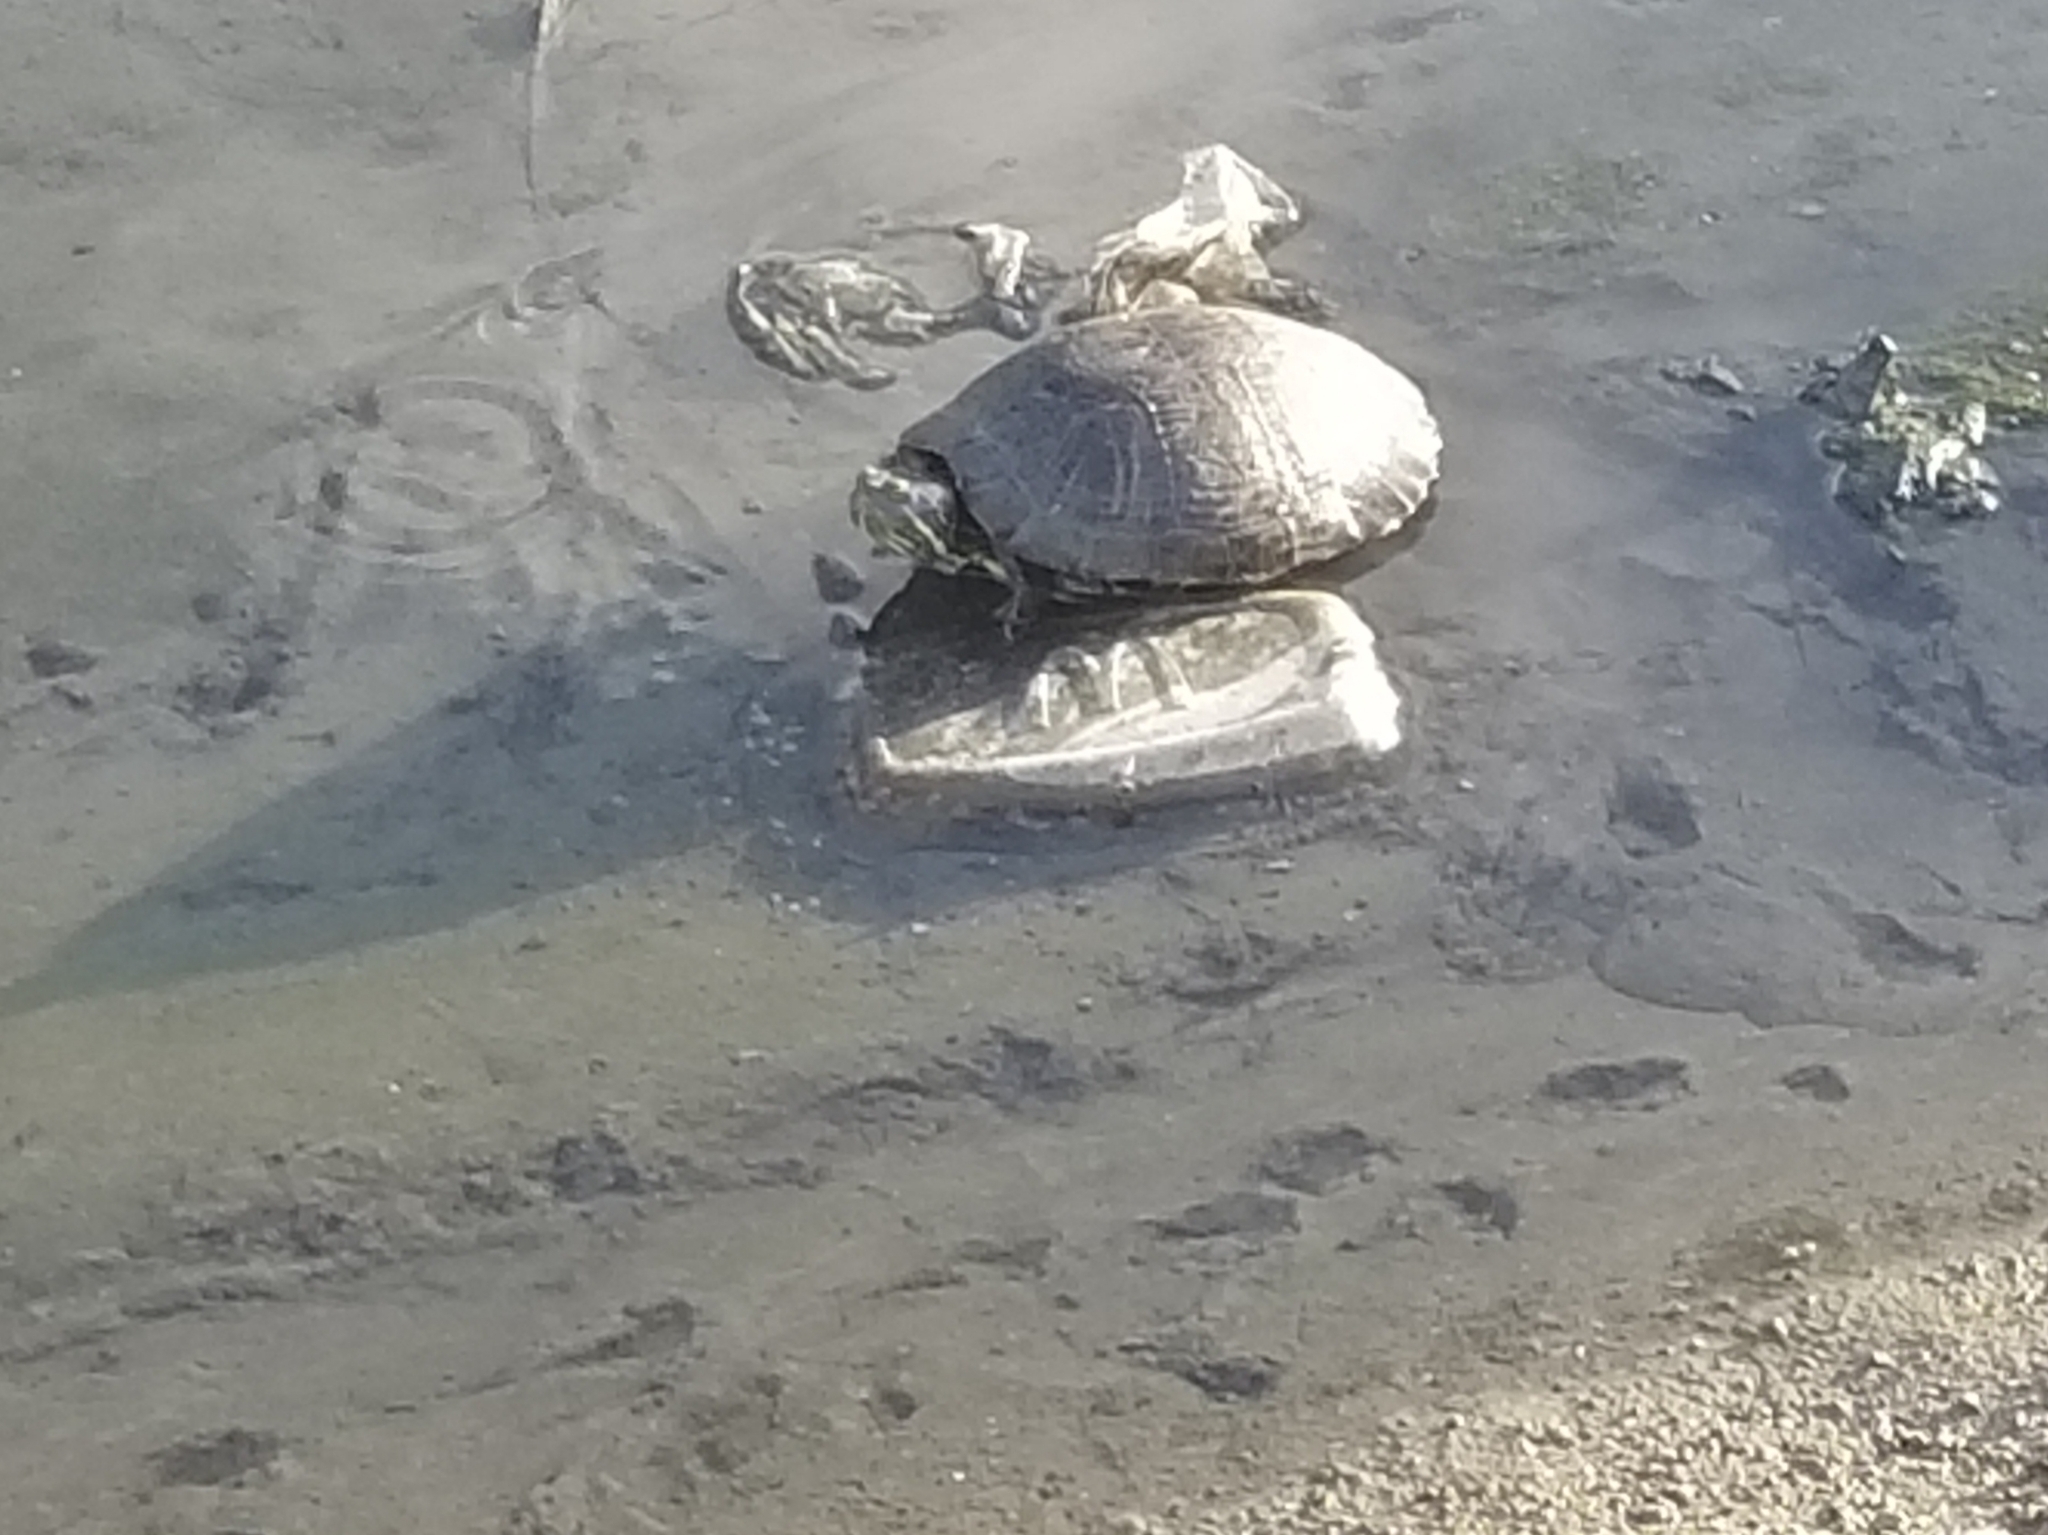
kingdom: Animalia
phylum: Chordata
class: Testudines
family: Emydidae
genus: Trachemys
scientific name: Trachemys scripta
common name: Slider
